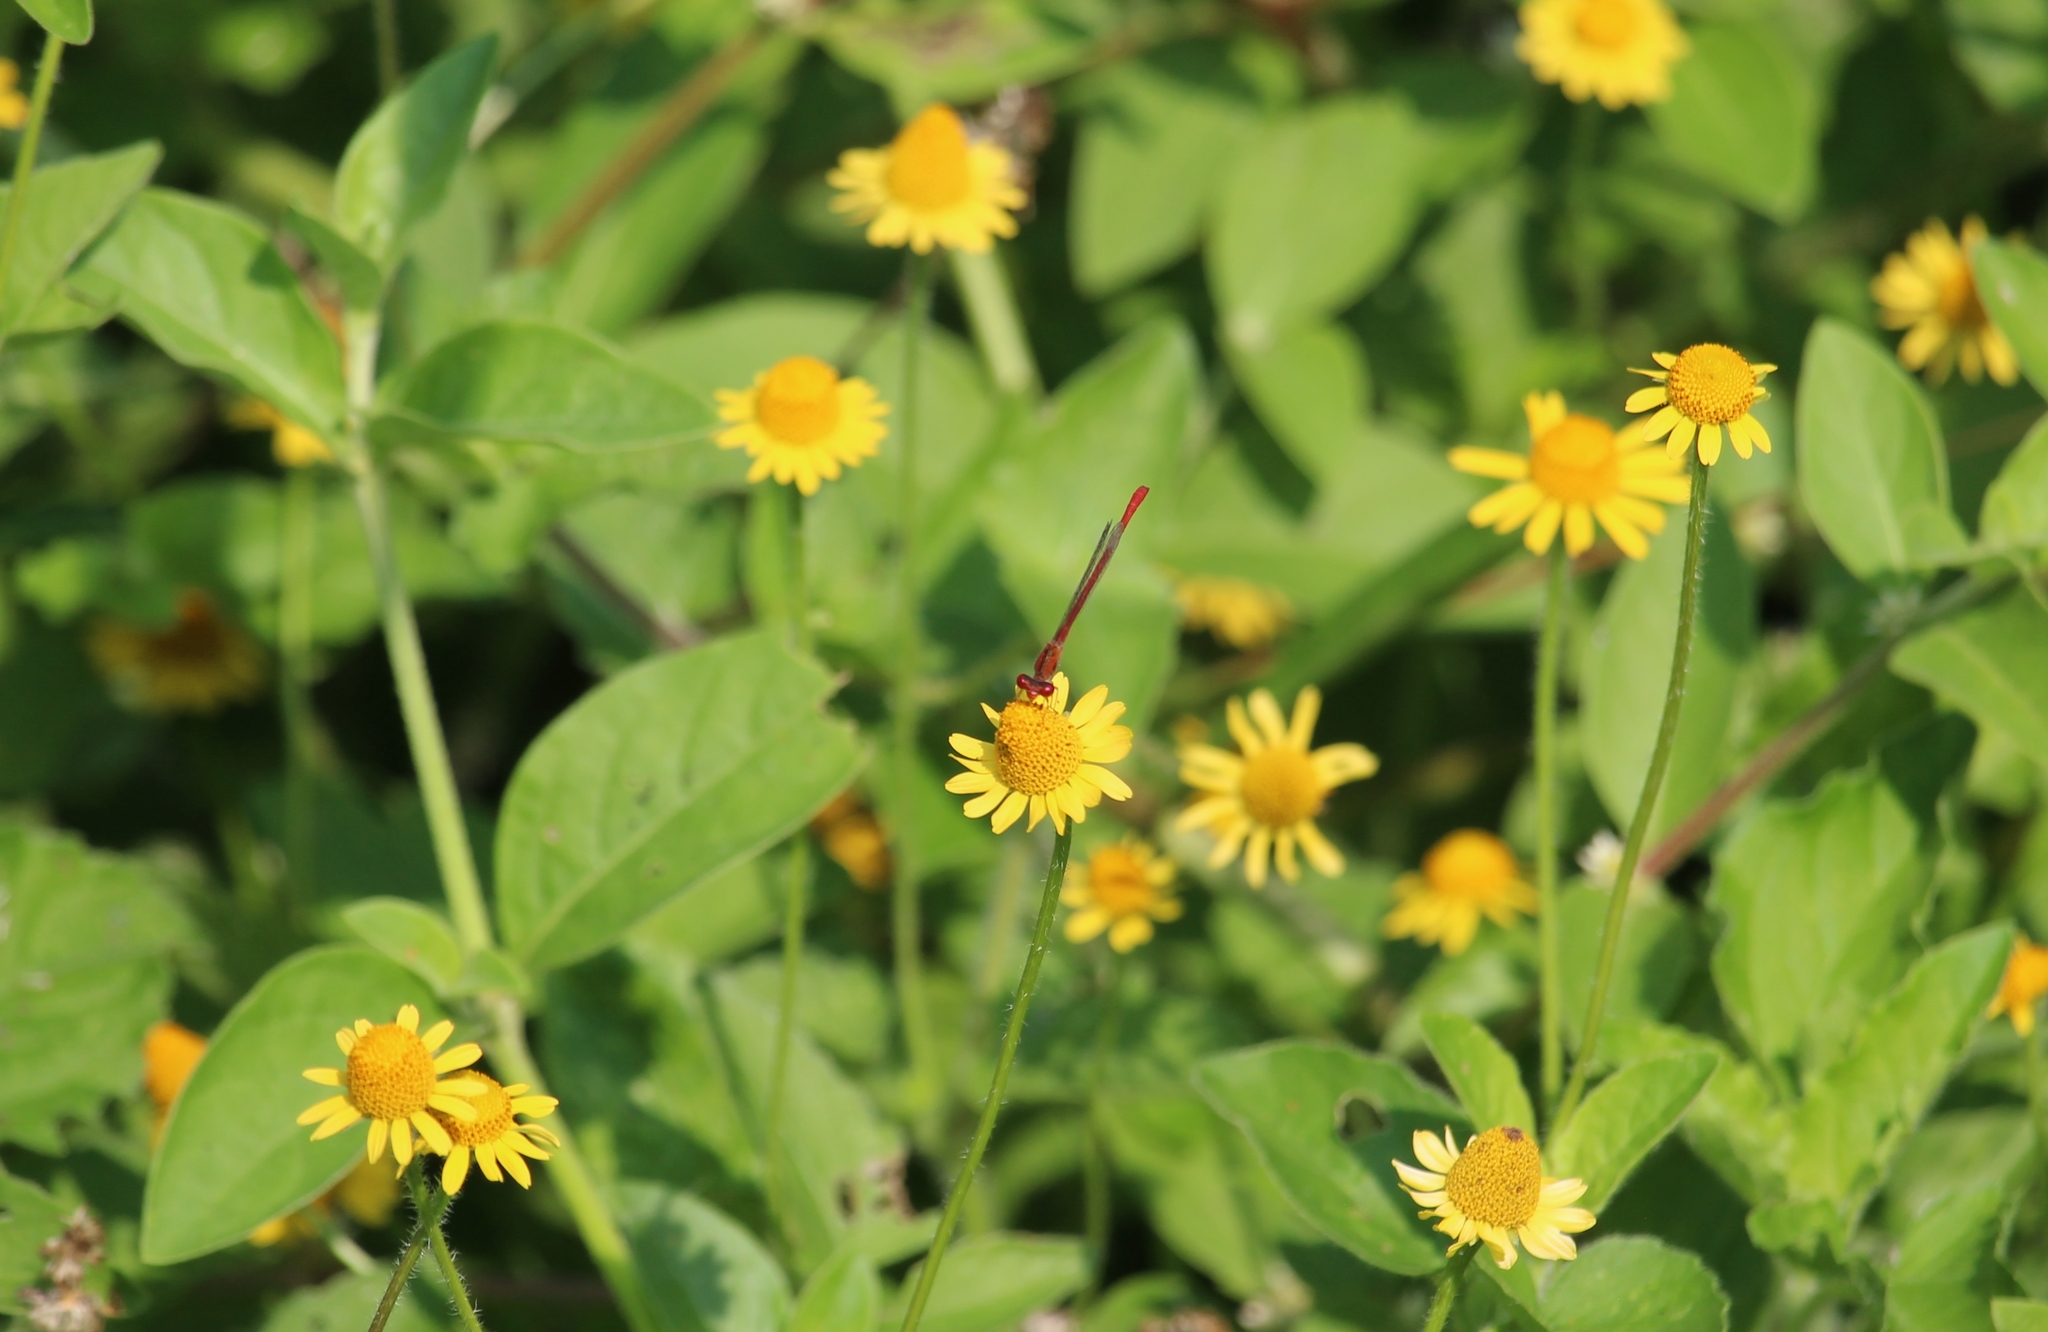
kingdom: Animalia
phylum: Arthropoda
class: Insecta
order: Odonata
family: Coenagrionidae
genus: Telebasis
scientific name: Telebasis salva
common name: Desert firetail
